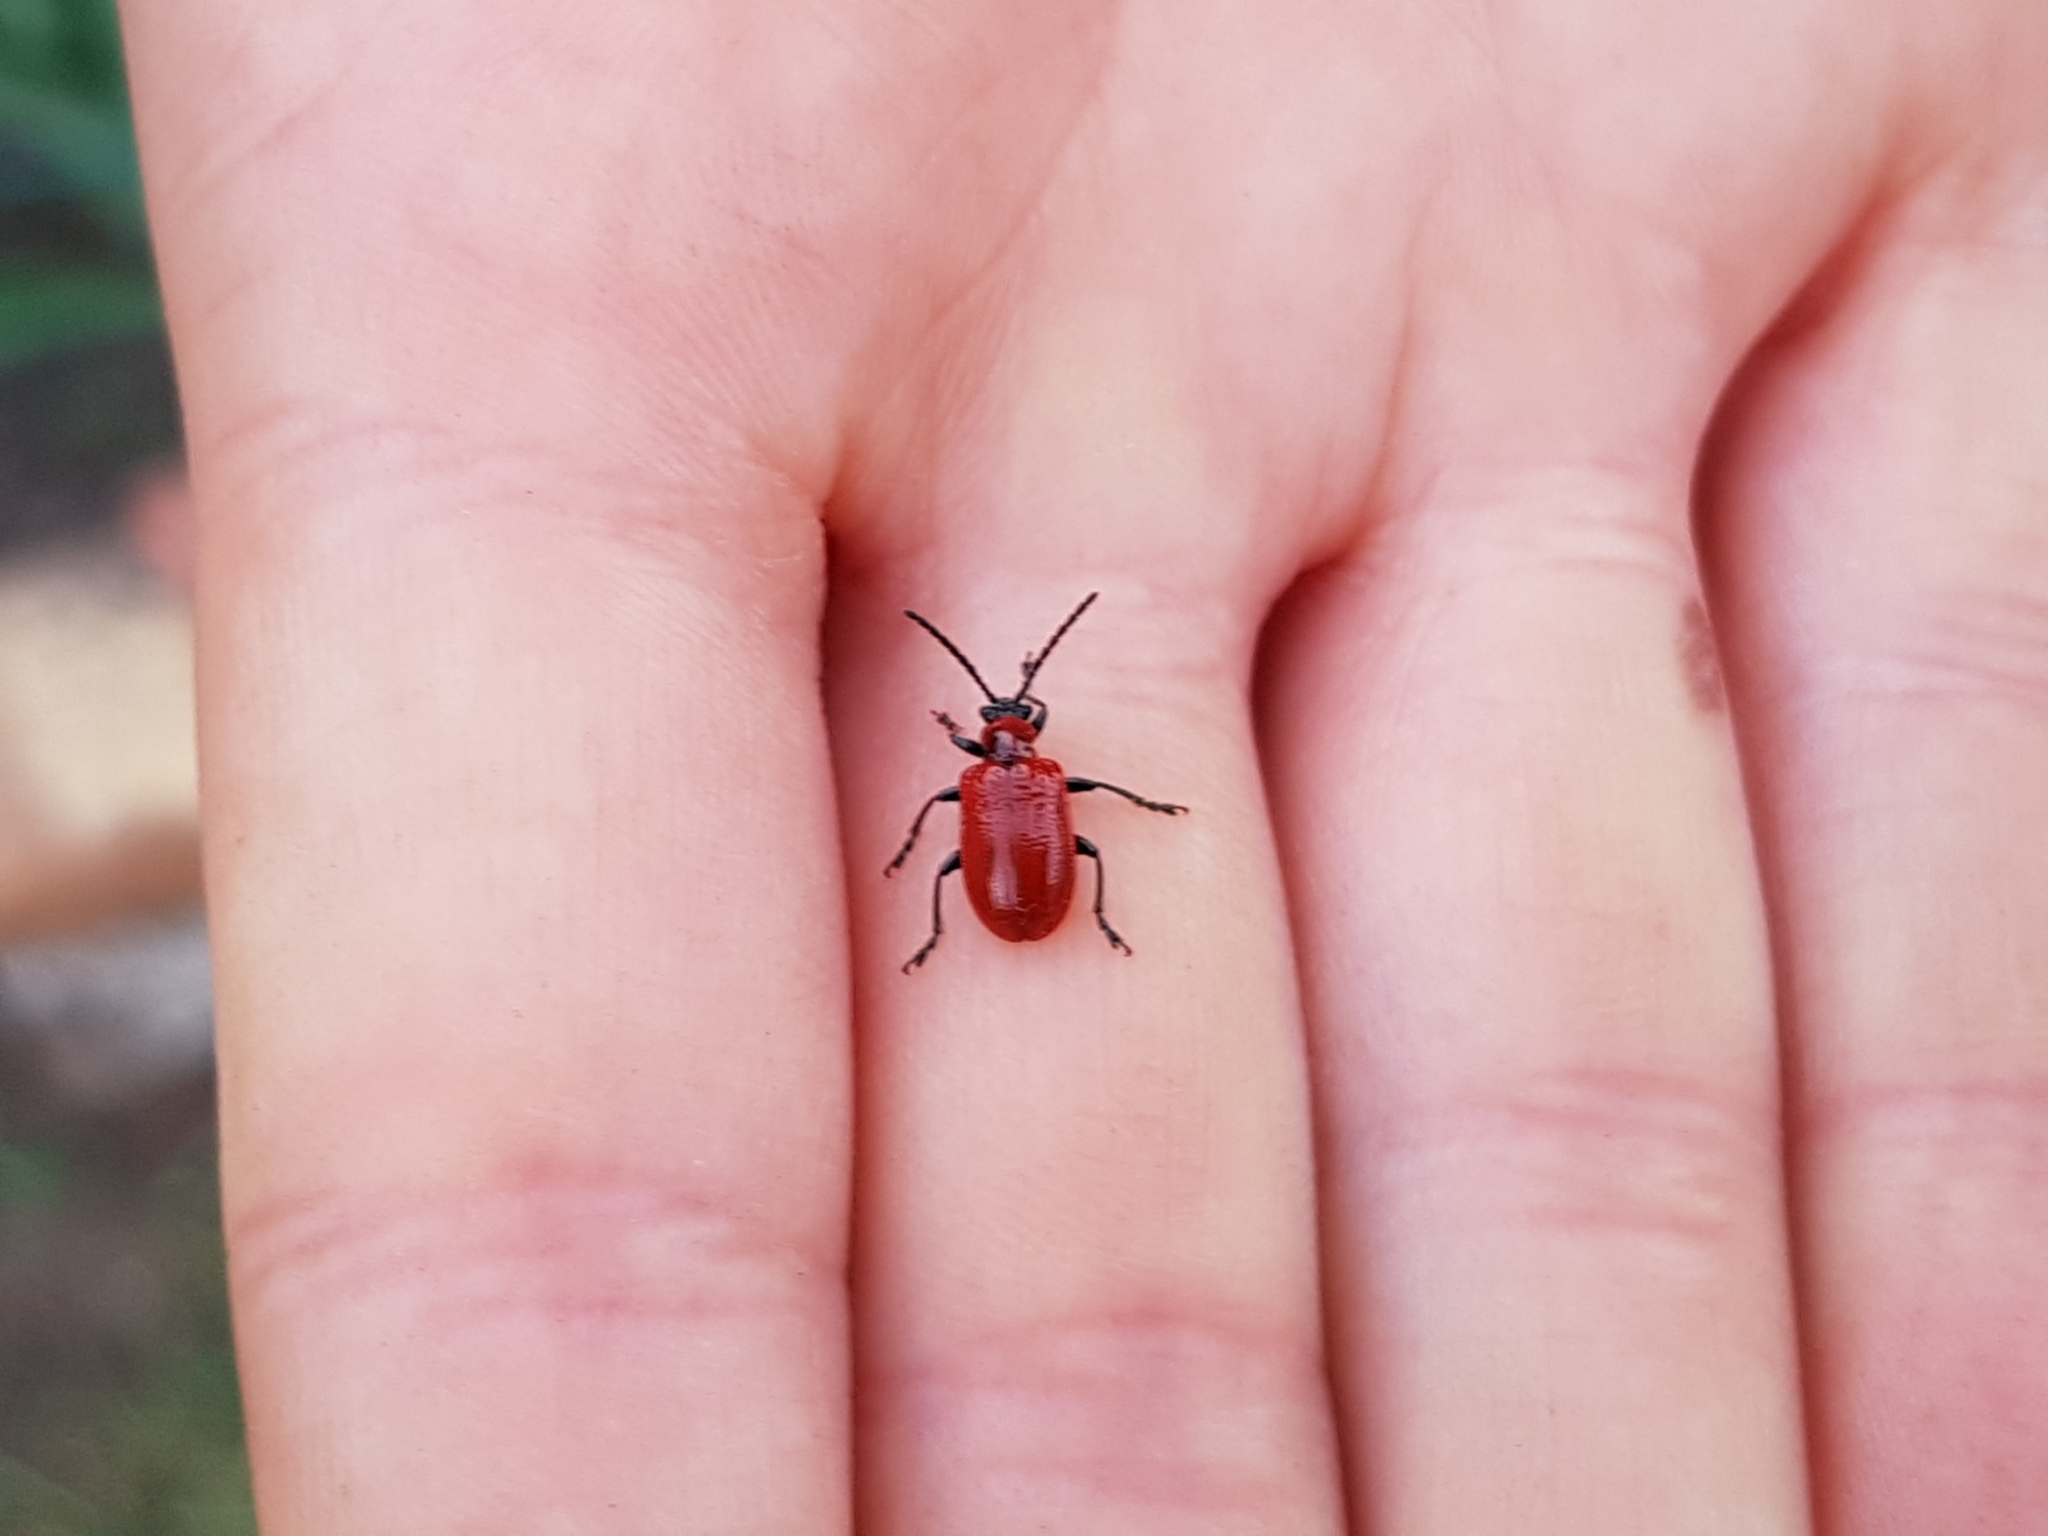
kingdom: Animalia
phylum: Arthropoda
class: Insecta
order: Coleoptera
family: Chrysomelidae
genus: Lilioceris
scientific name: Lilioceris lilii
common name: Lily beetle
